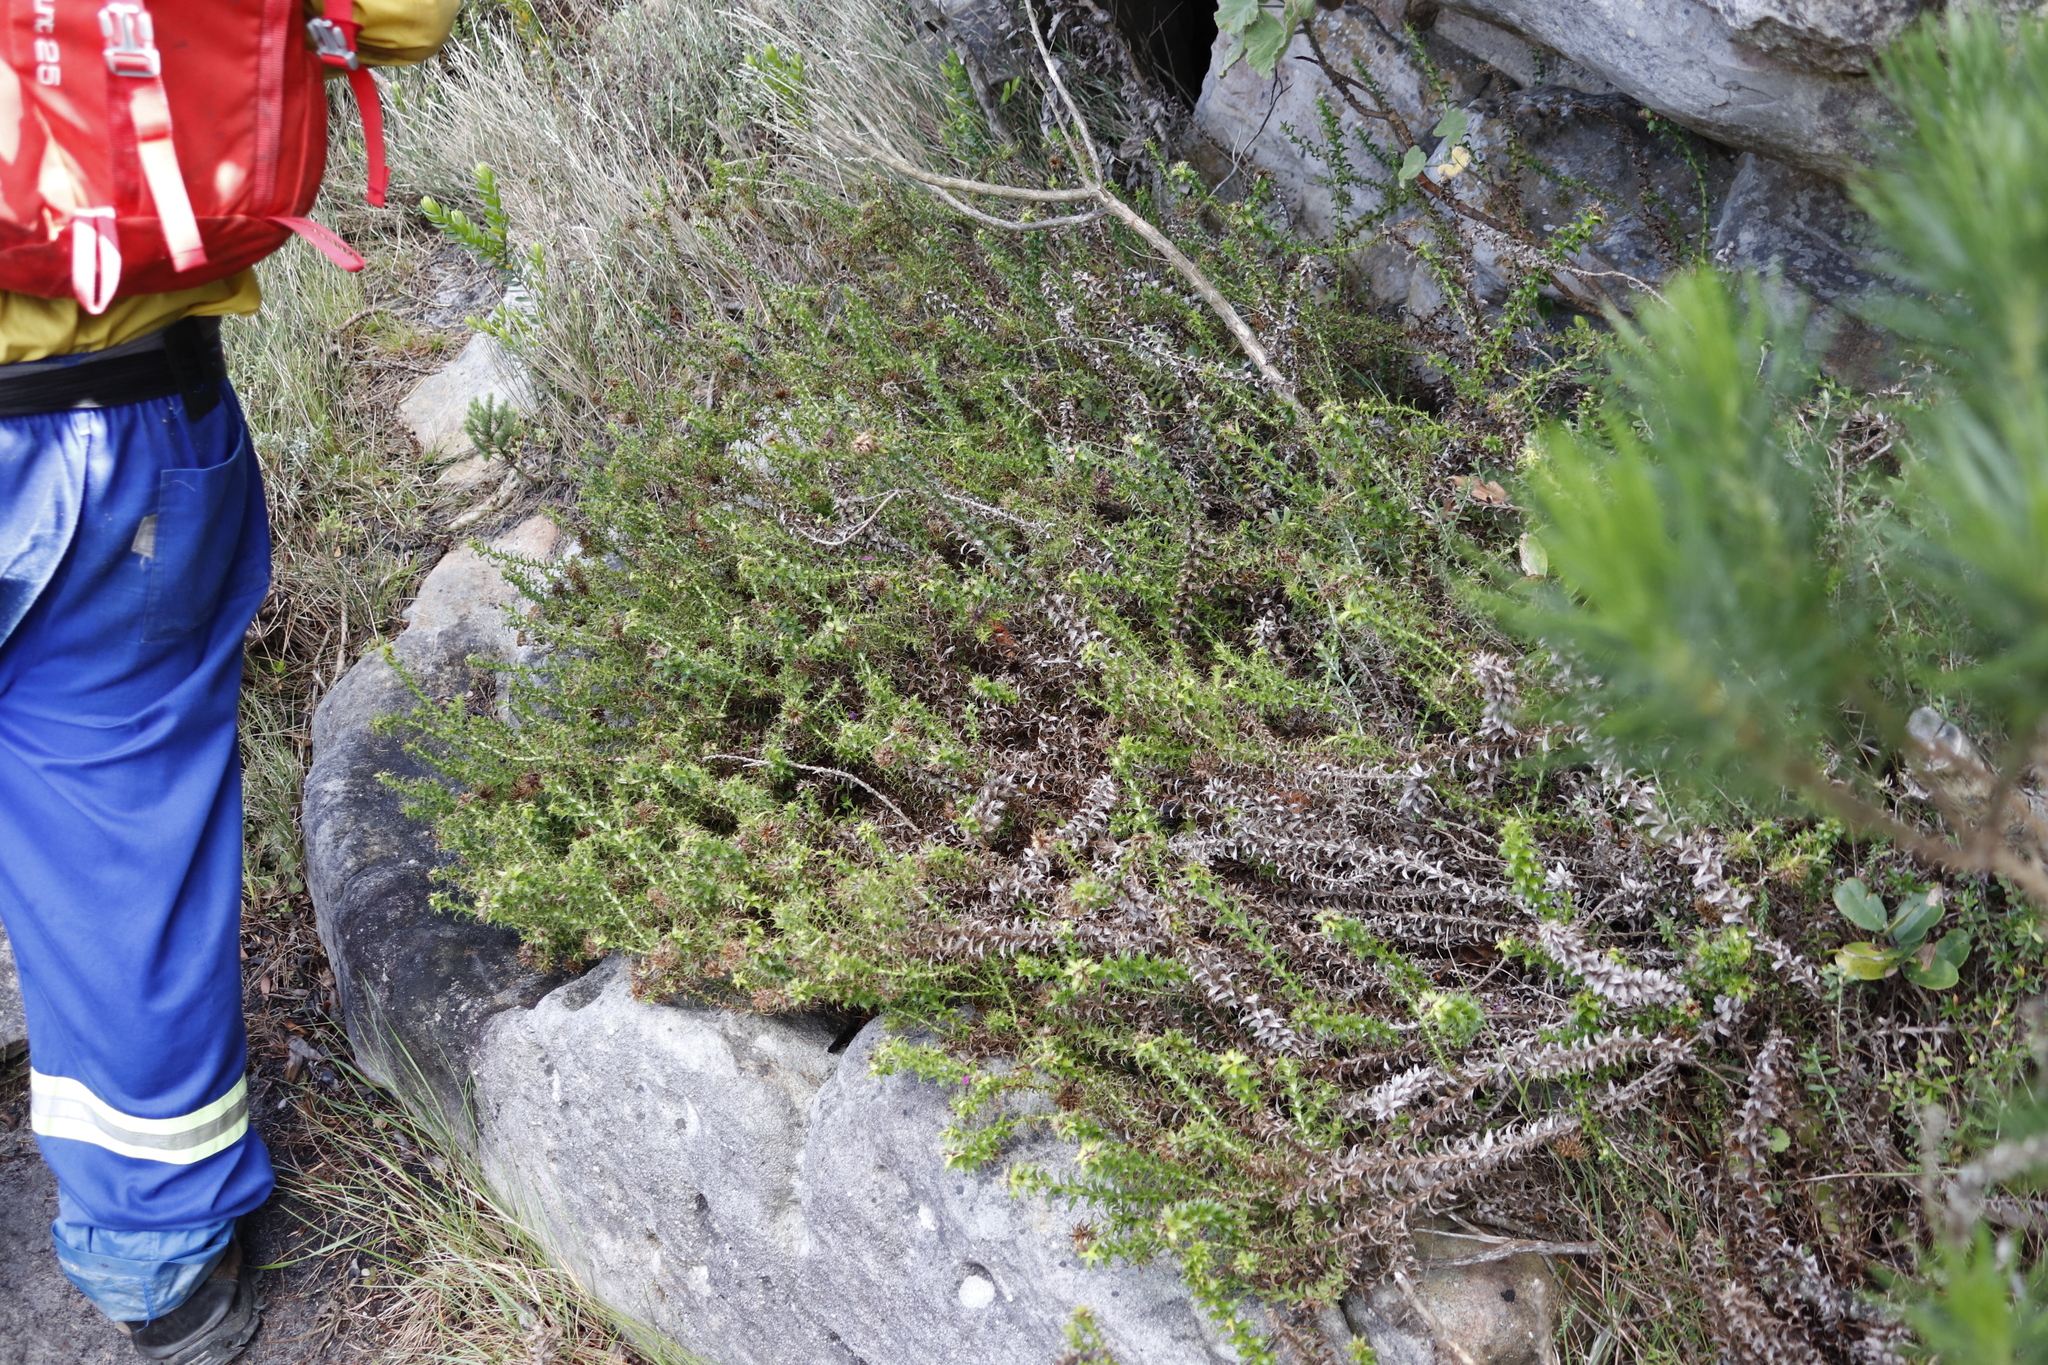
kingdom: Plantae
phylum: Tracheophyta
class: Magnoliopsida
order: Asterales
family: Asteraceae
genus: Cullumia
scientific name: Cullumia setosa
